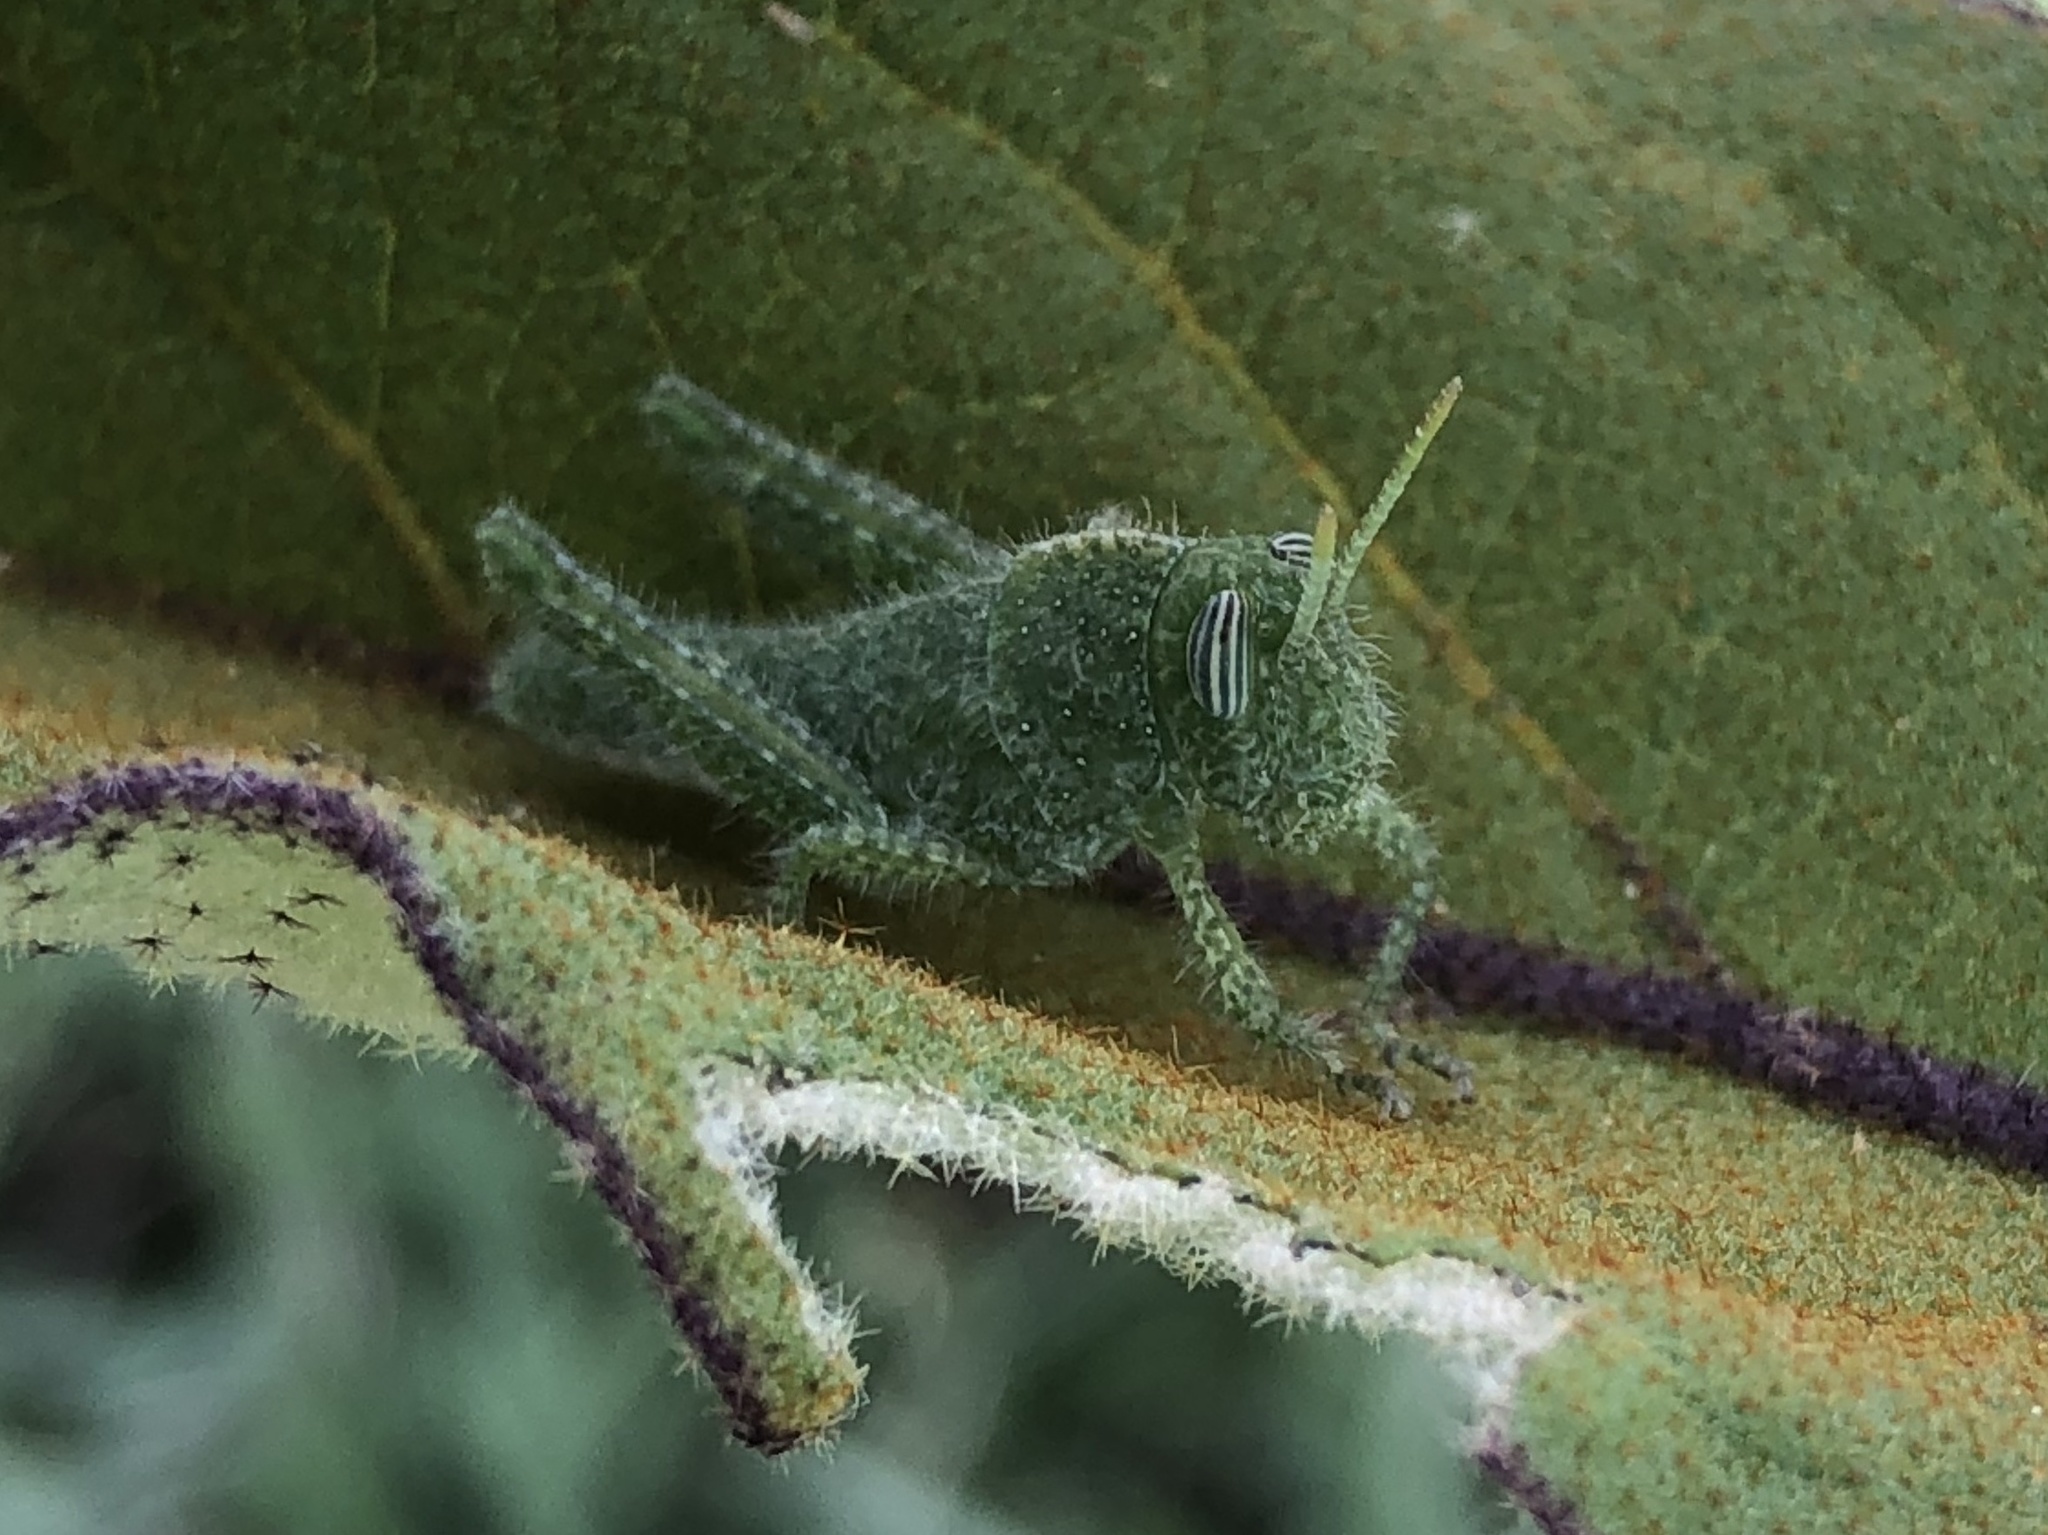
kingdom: Animalia
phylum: Arthropoda
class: Insecta
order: Orthoptera
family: Acrididae
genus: Acanthacris
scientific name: Acanthacris ruficornis
